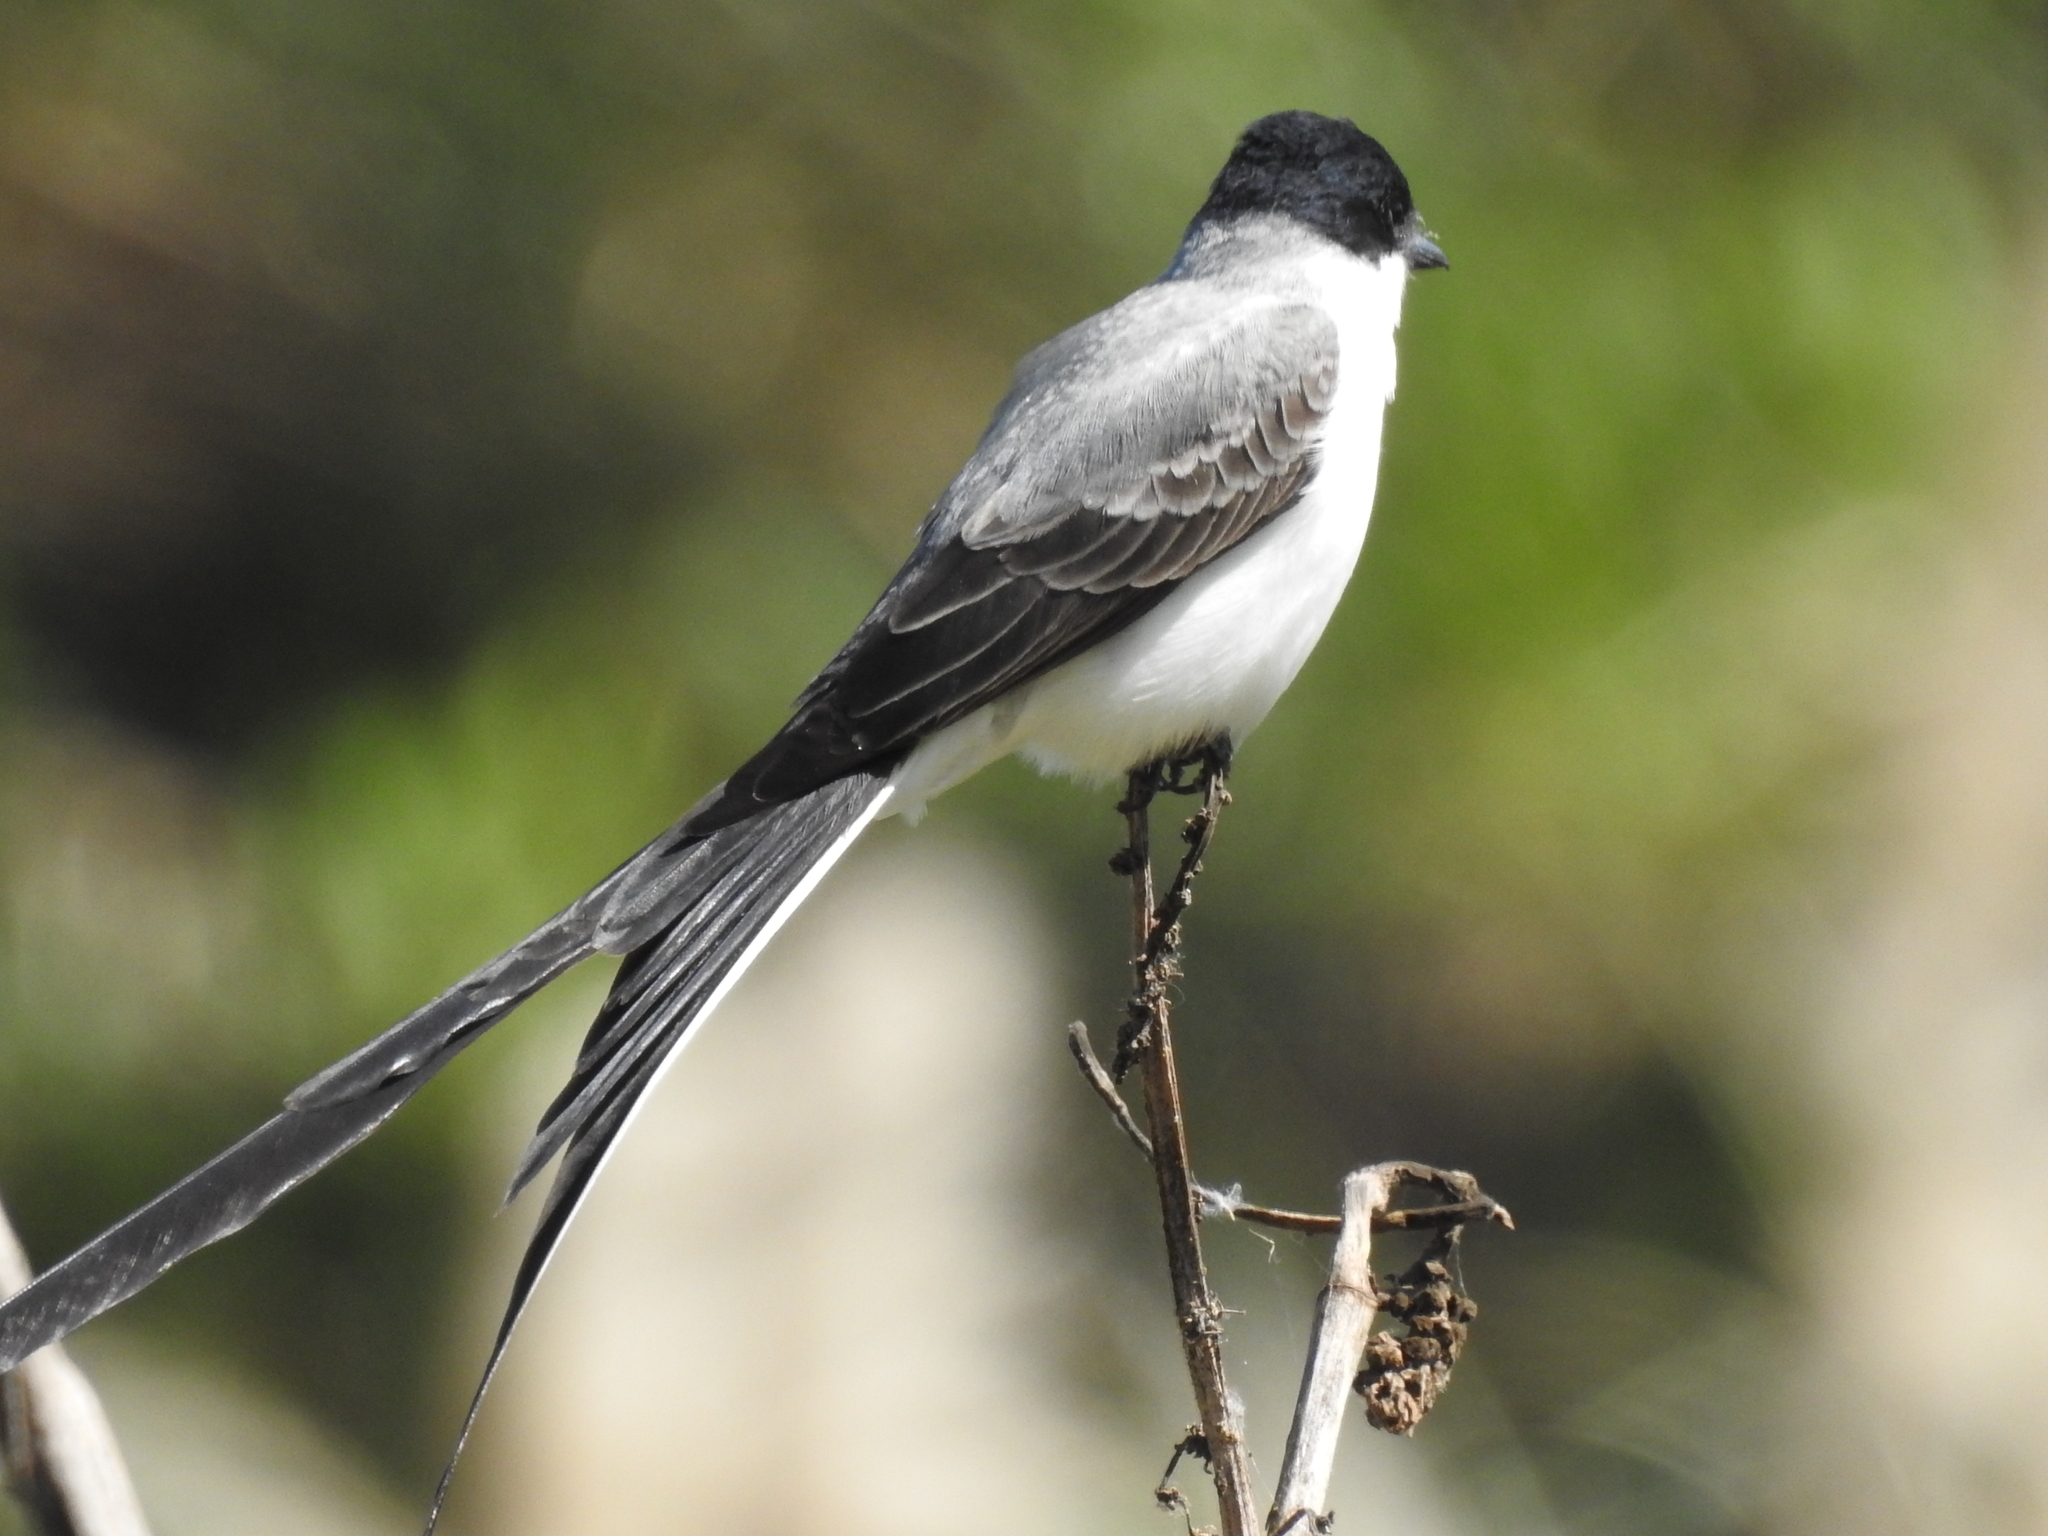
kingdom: Animalia
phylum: Chordata
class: Aves
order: Passeriformes
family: Tyrannidae
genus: Tyrannus
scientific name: Tyrannus savana
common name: Fork-tailed flycatcher
